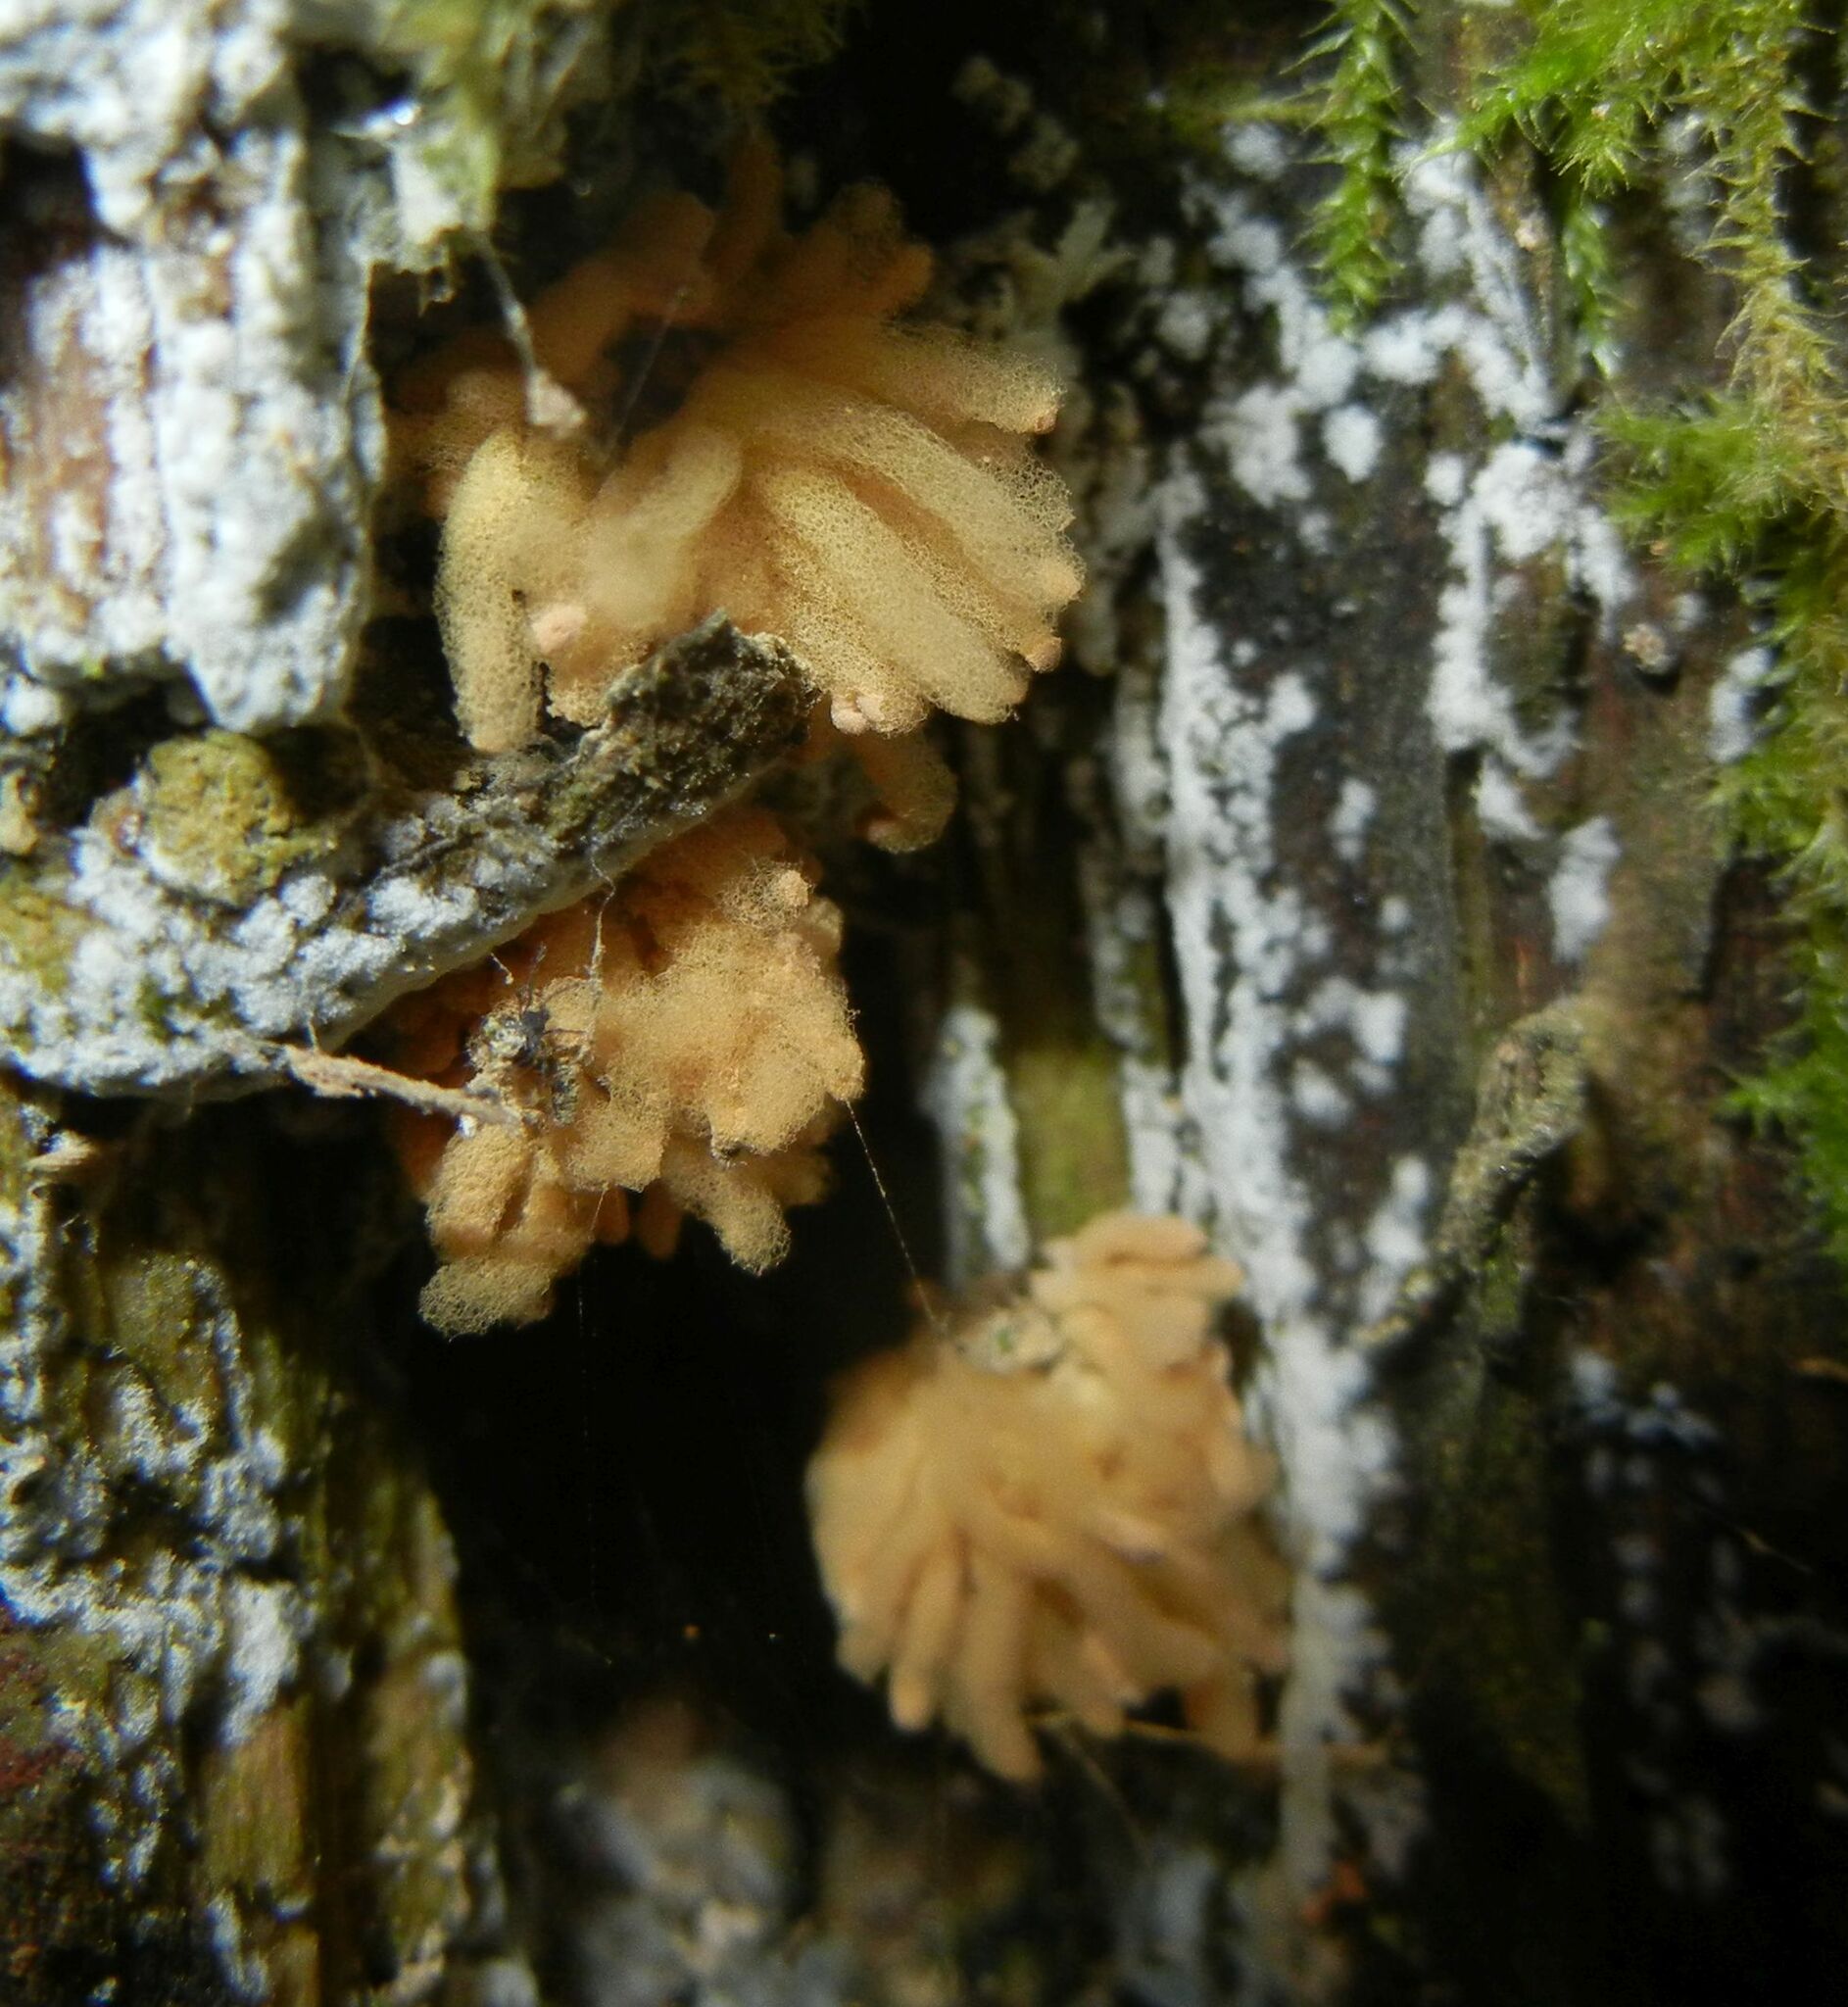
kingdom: Protozoa
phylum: Mycetozoa
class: Myxomycetes
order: Trichiales
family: Arcyriaceae
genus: Arcyria
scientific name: Arcyria obvelata
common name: Yellow carnival candy slime
